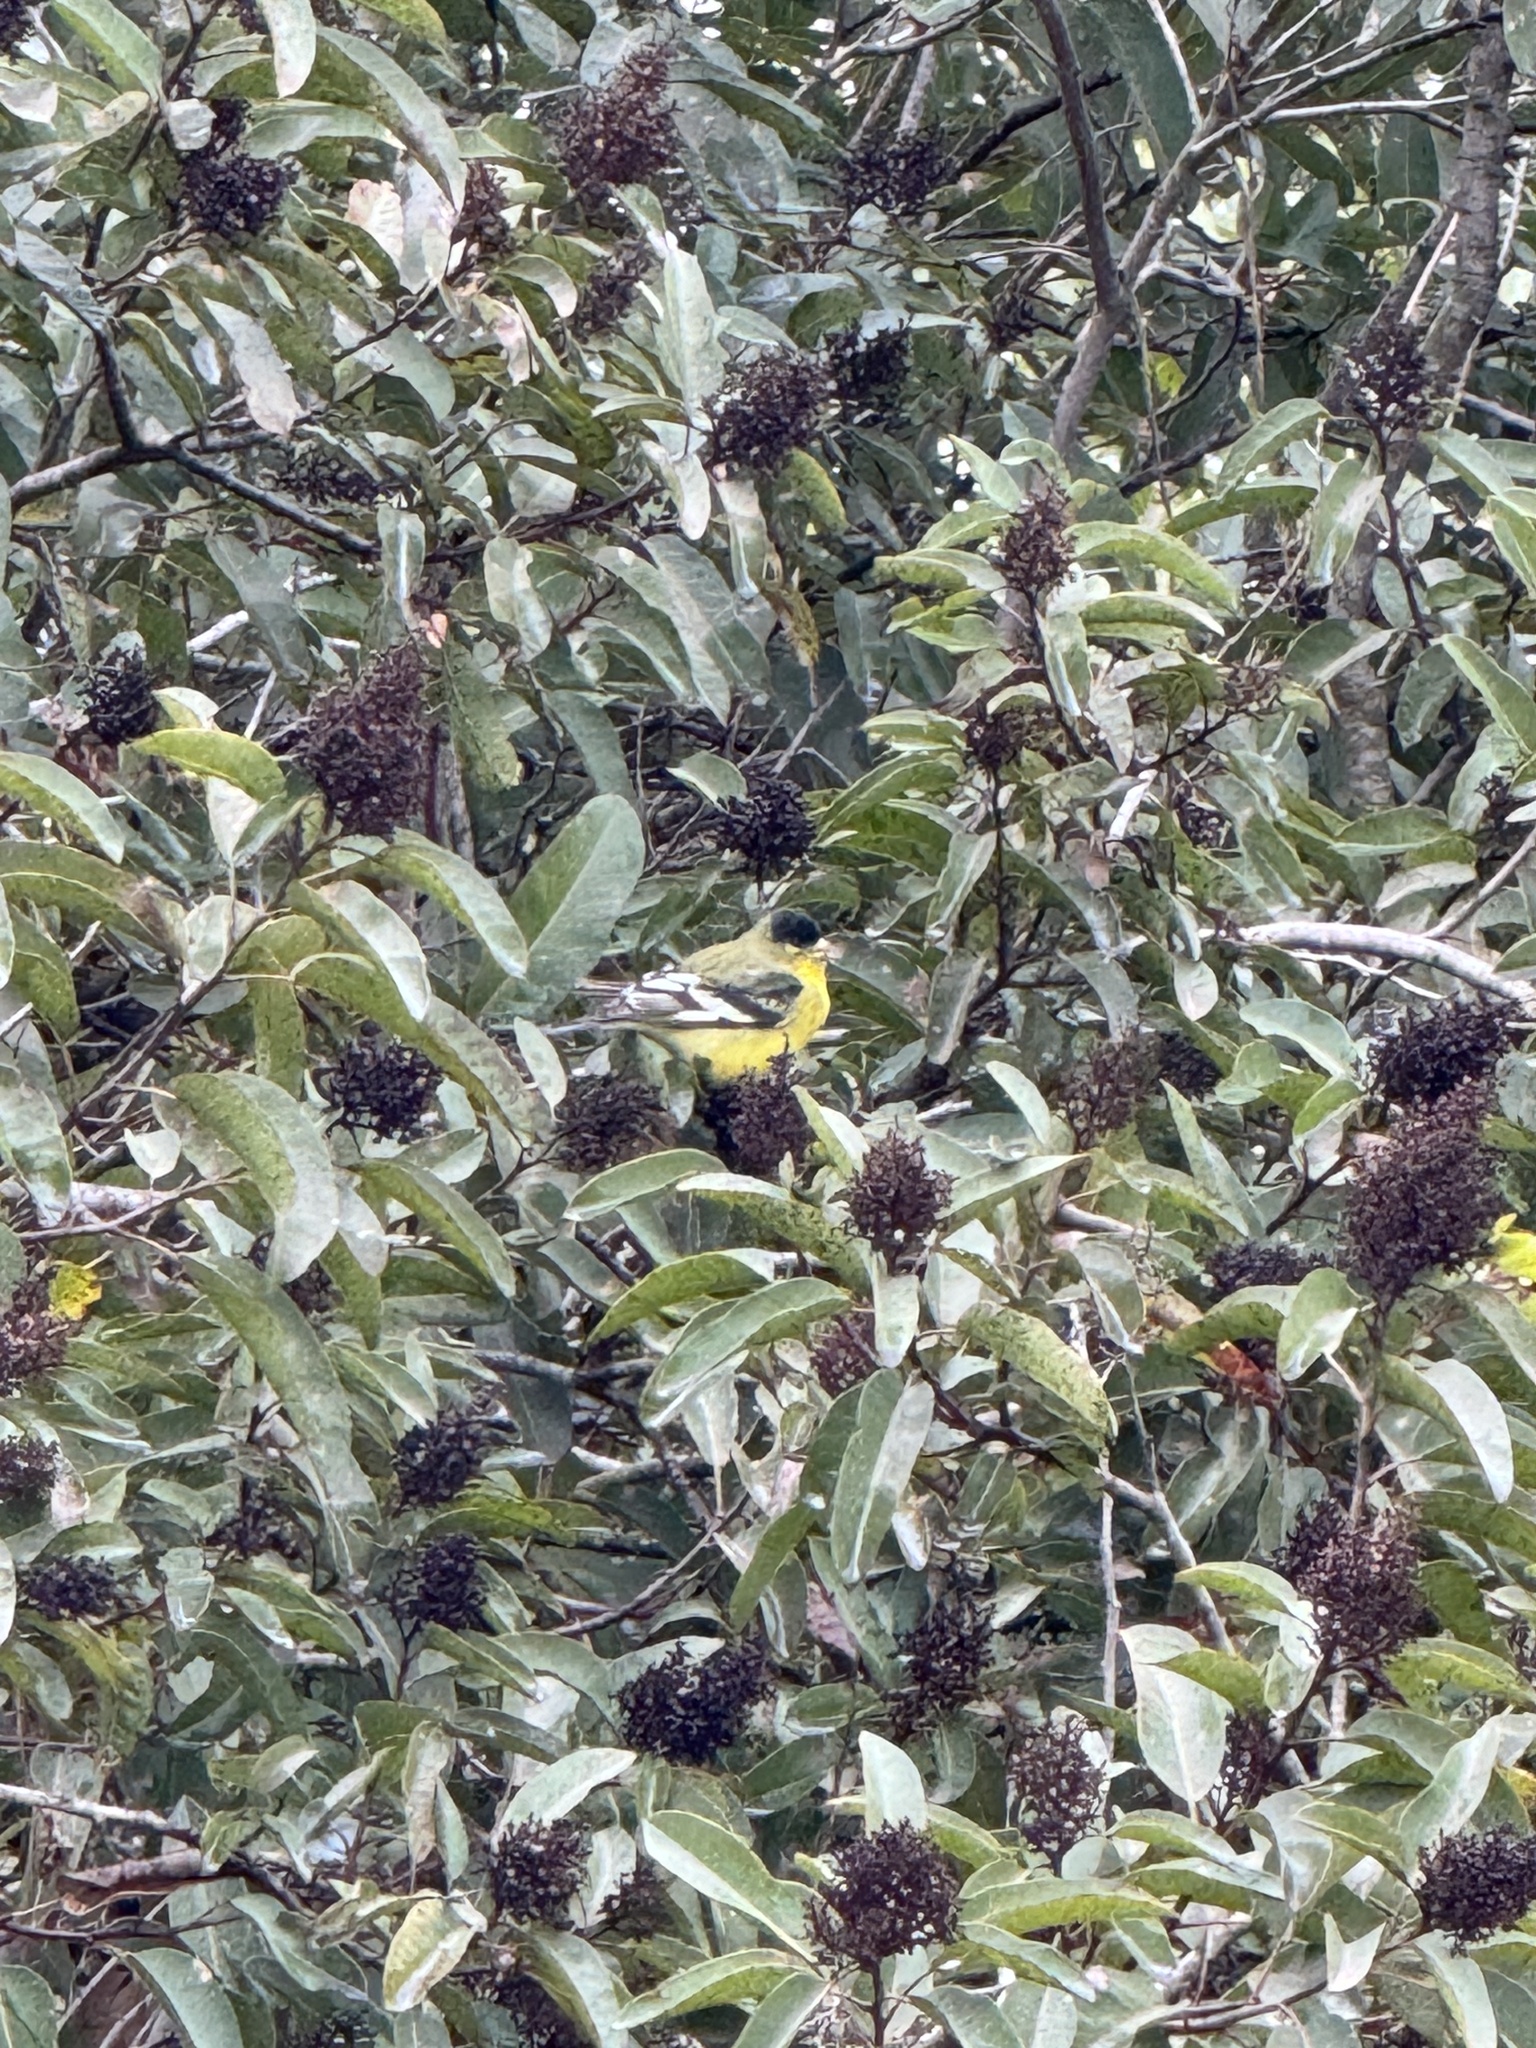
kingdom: Animalia
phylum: Chordata
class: Aves
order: Passeriformes
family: Fringillidae
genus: Spinus
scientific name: Spinus psaltria
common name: Lesser goldfinch
